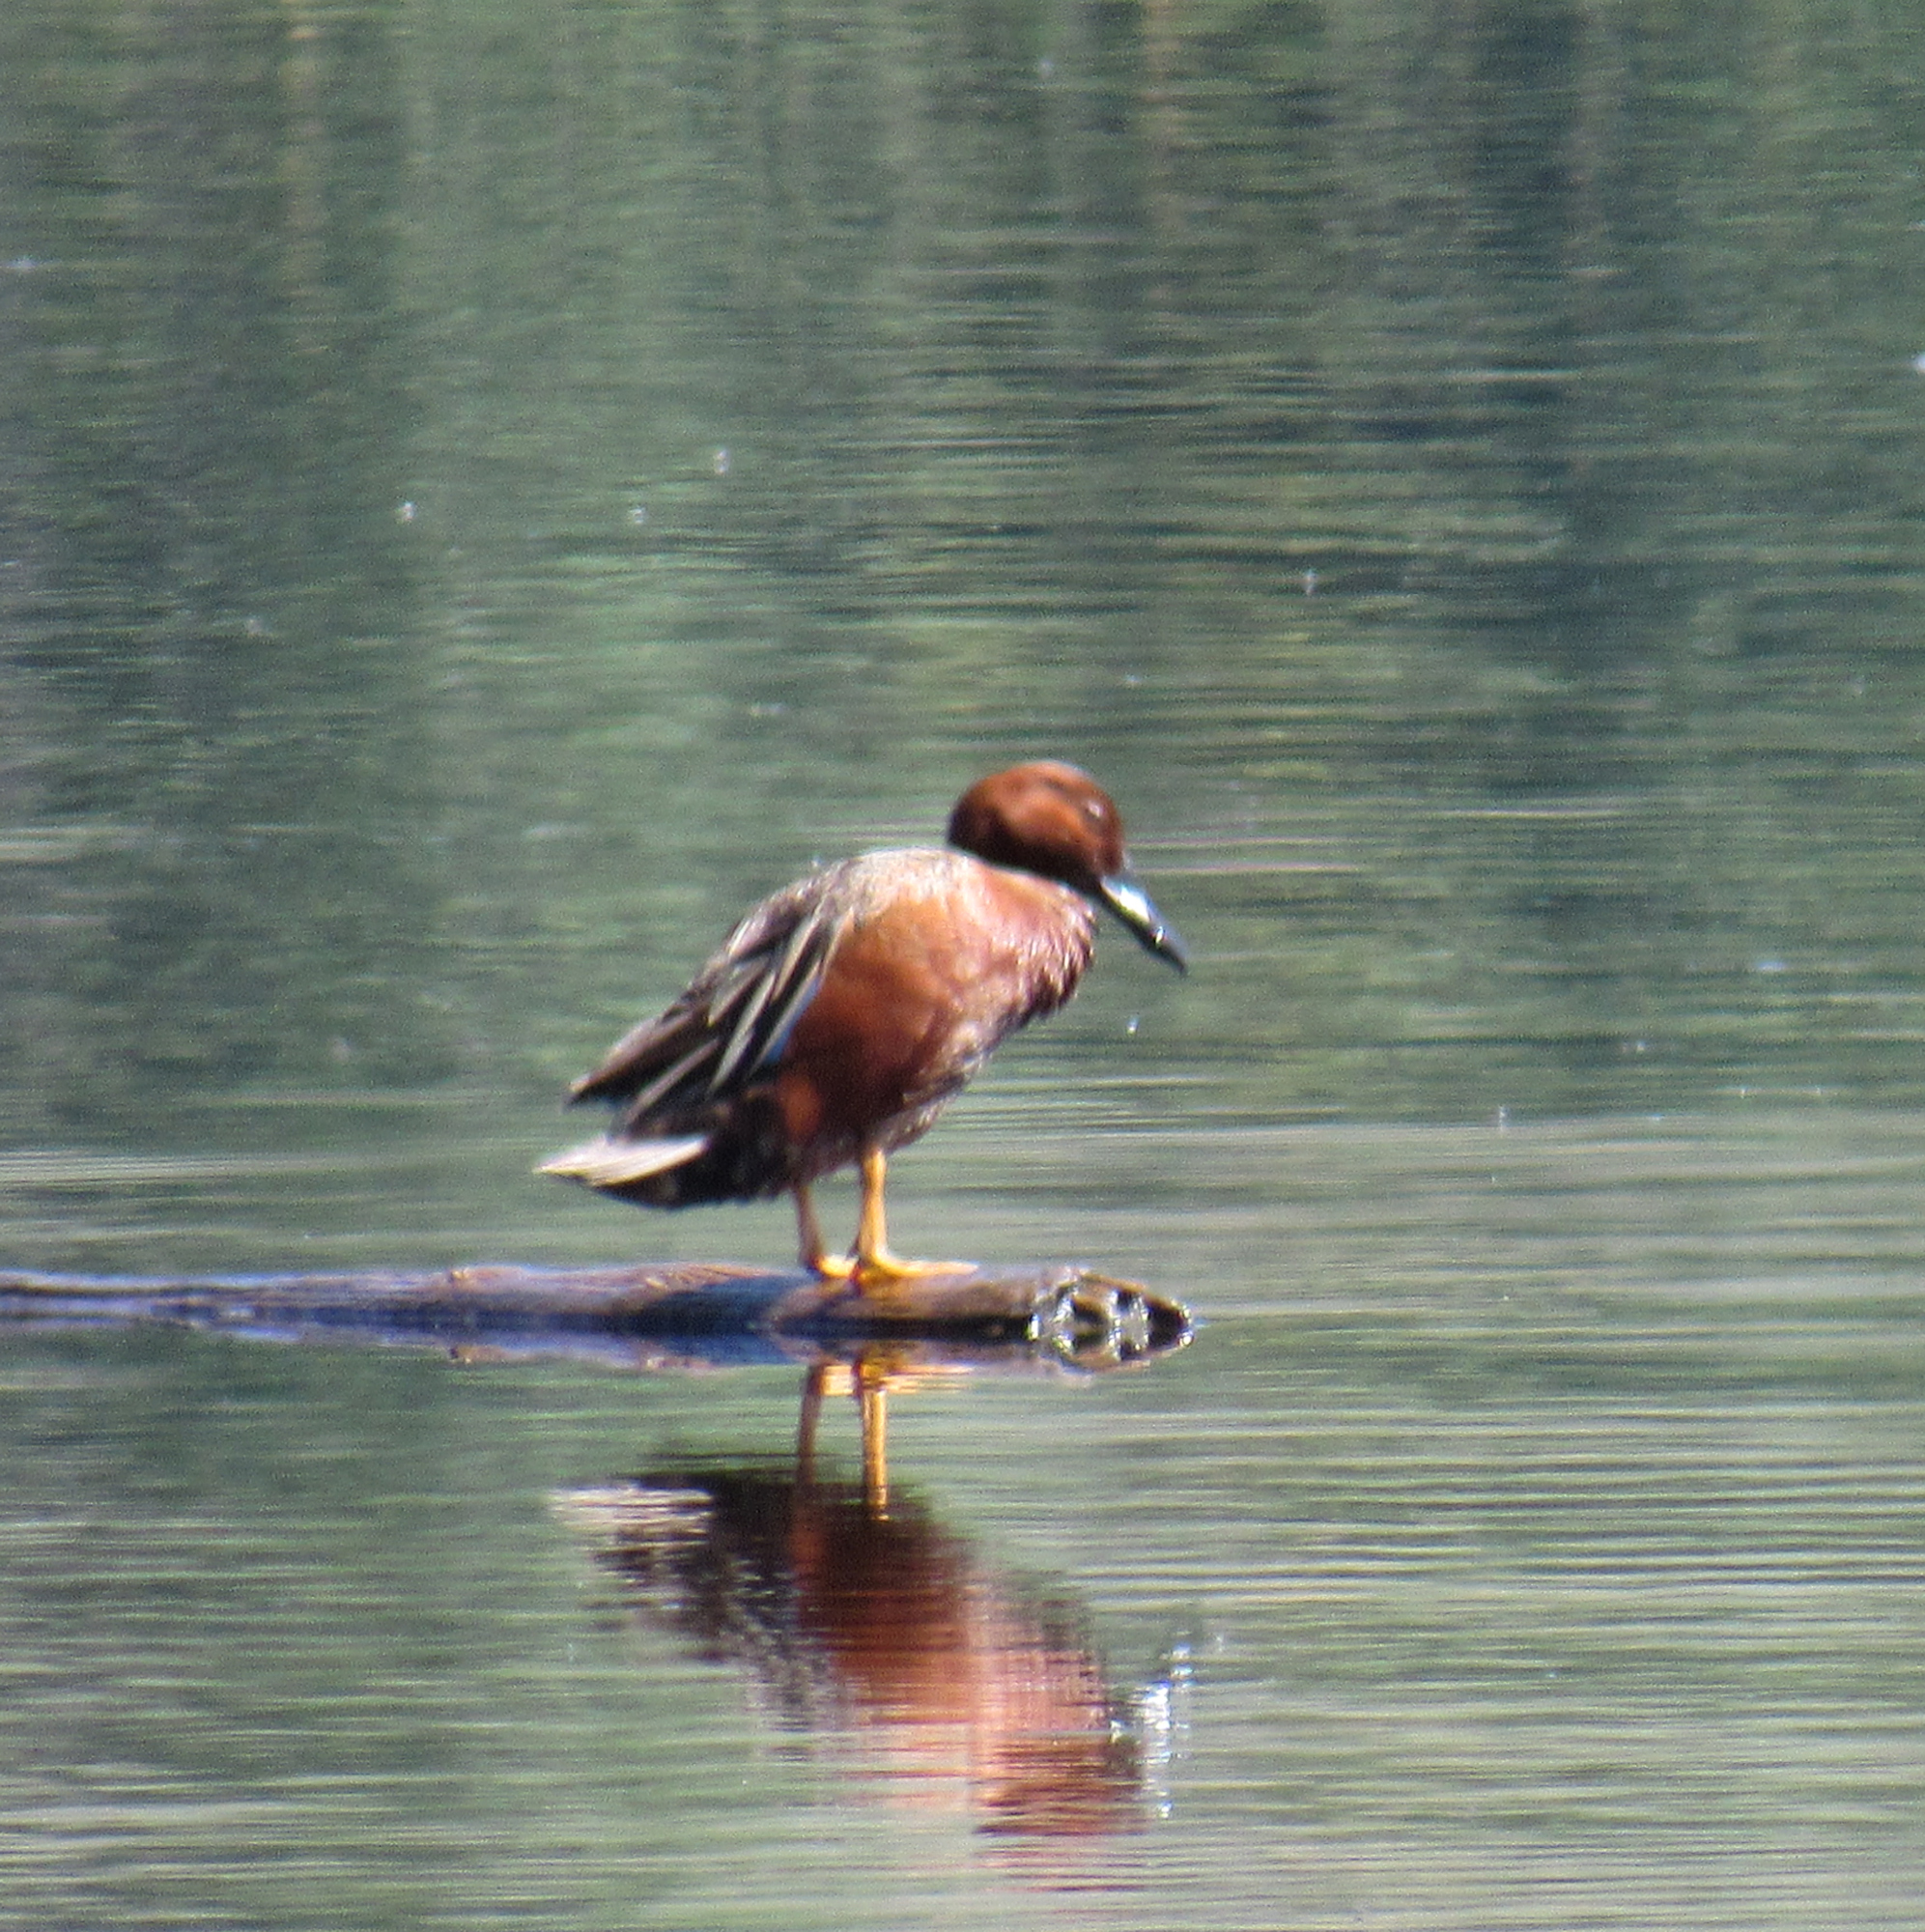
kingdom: Animalia
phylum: Chordata
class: Aves
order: Anseriformes
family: Anatidae
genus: Spatula
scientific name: Spatula cyanoptera
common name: Cinnamon teal
